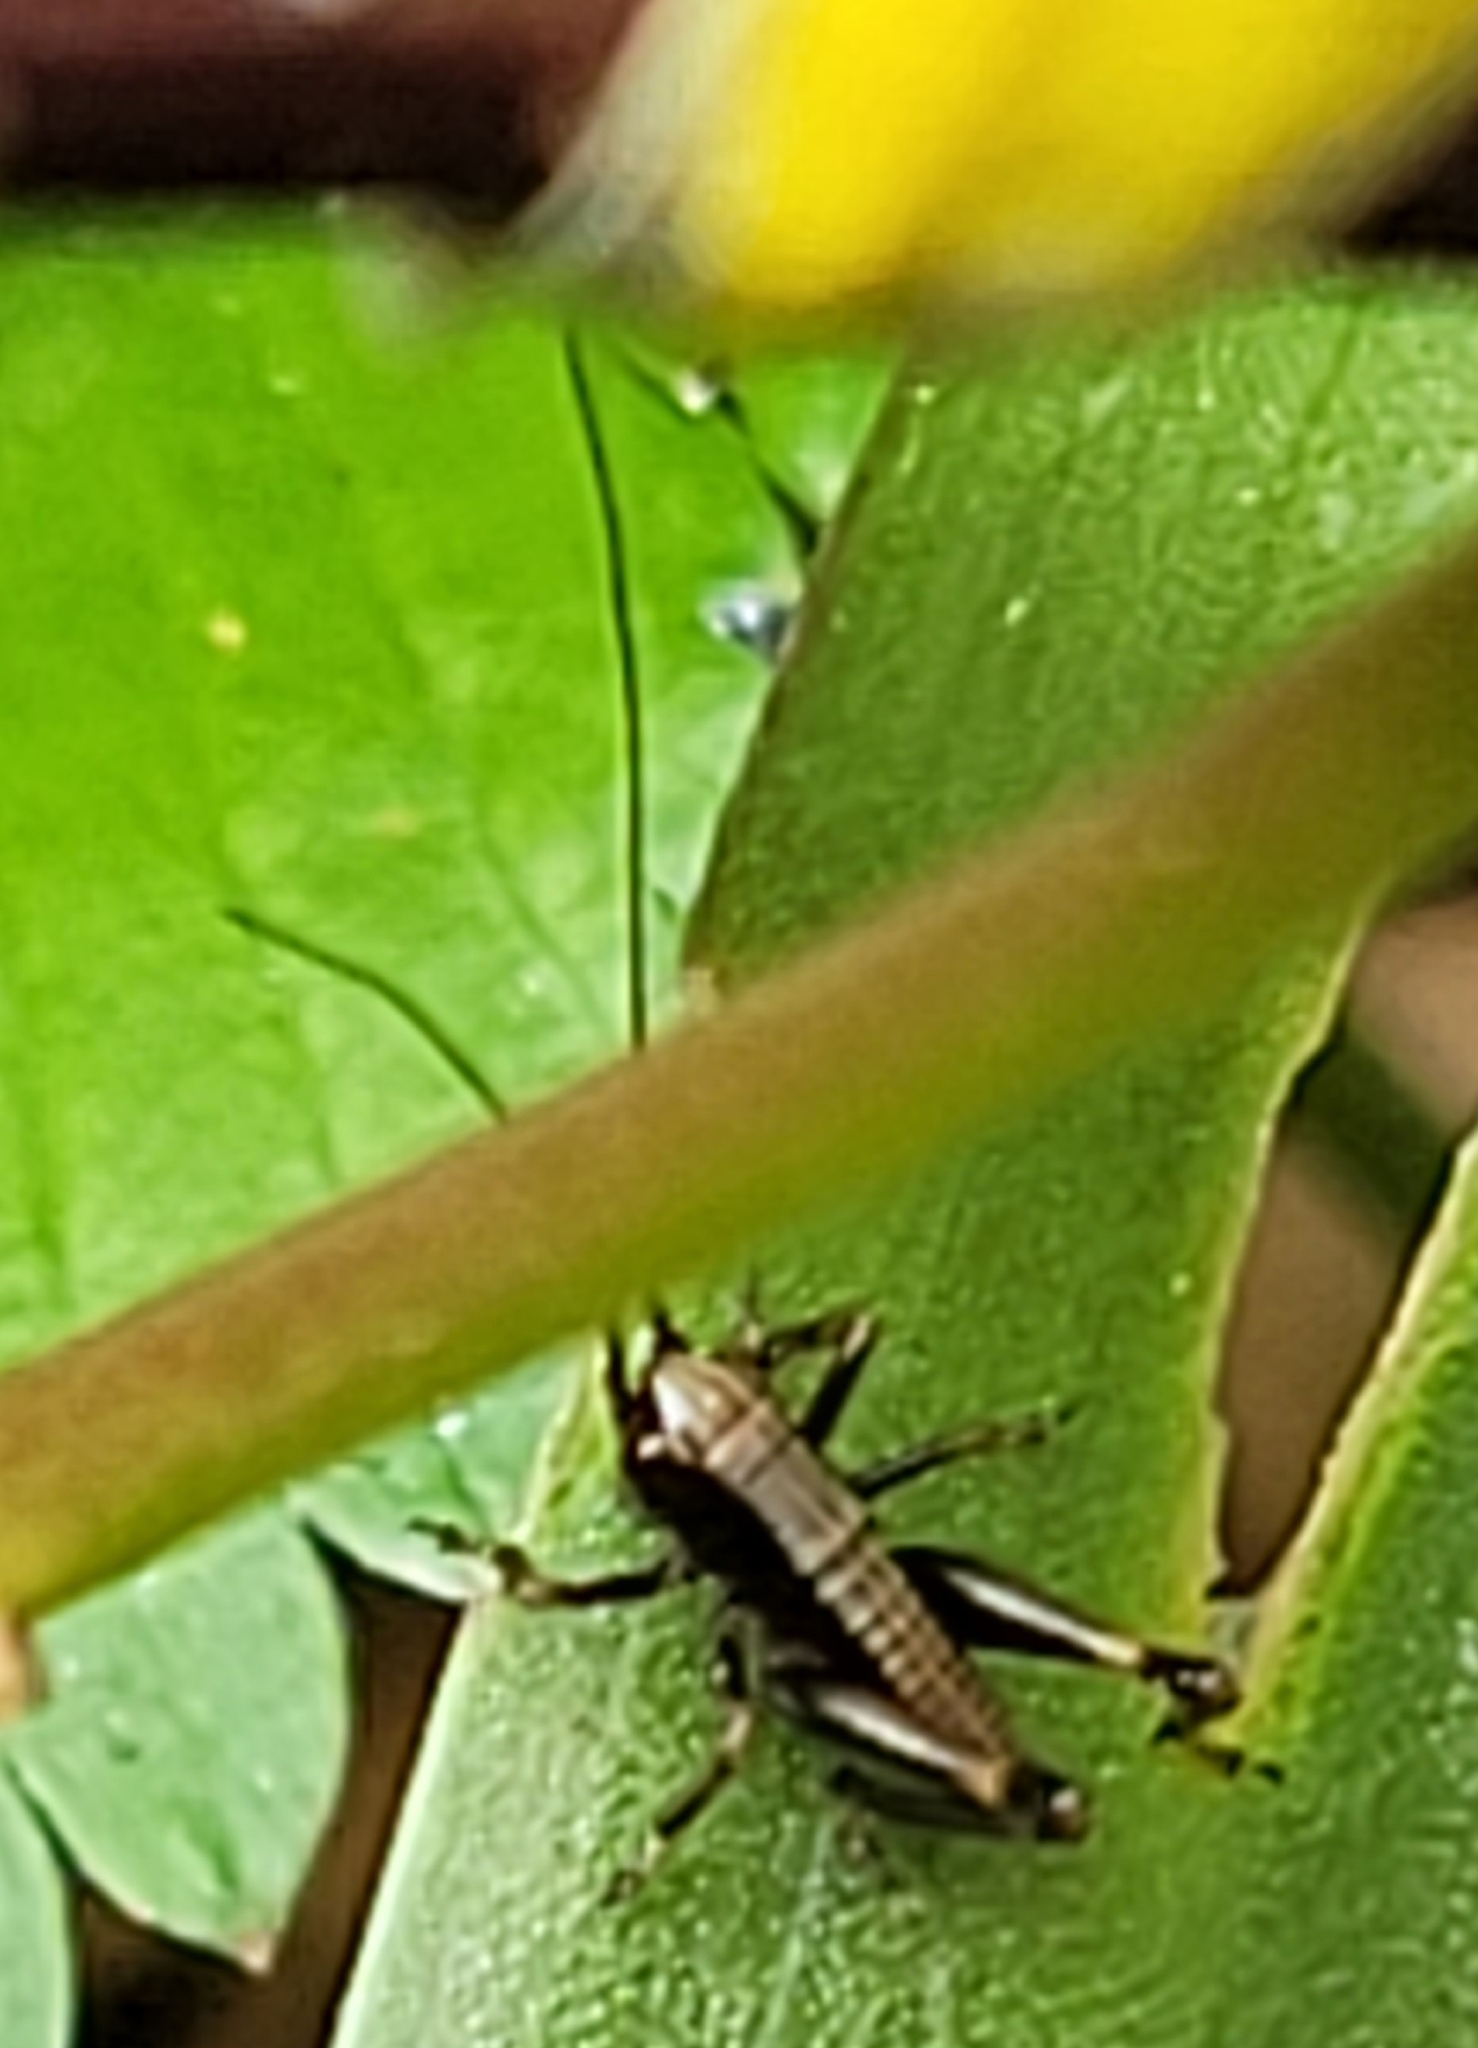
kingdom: Animalia
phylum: Arthropoda
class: Insecta
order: Orthoptera
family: Tettigoniidae
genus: Pholidoptera
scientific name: Pholidoptera griseoaptera
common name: Dark bush-cricket
